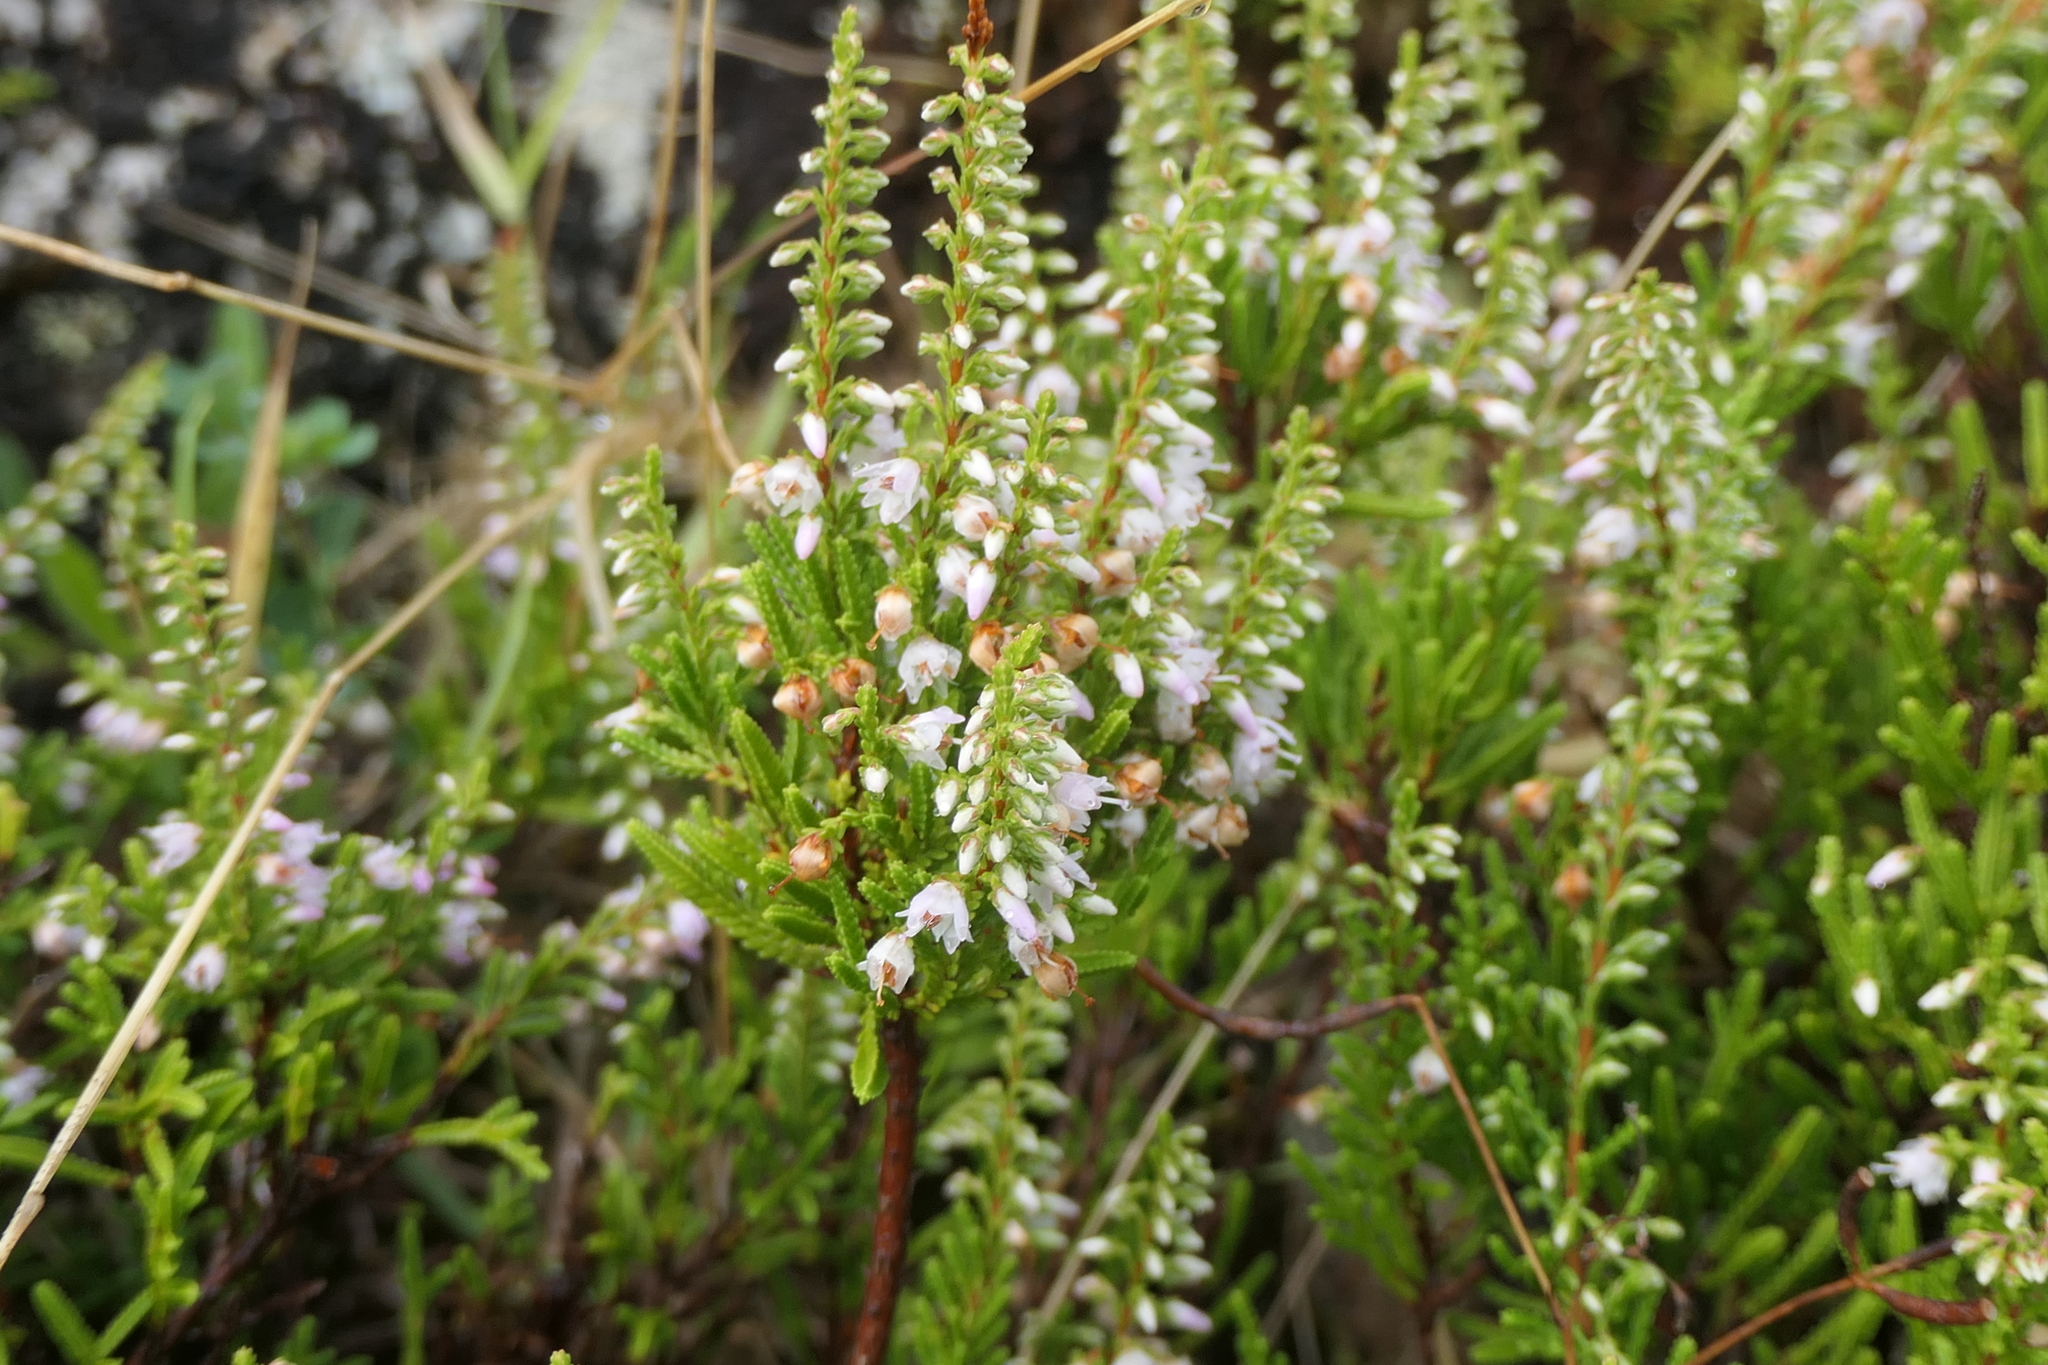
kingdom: Plantae
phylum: Tracheophyta
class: Magnoliopsida
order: Ericales
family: Ericaceae
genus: Calluna
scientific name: Calluna vulgaris
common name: Heather
